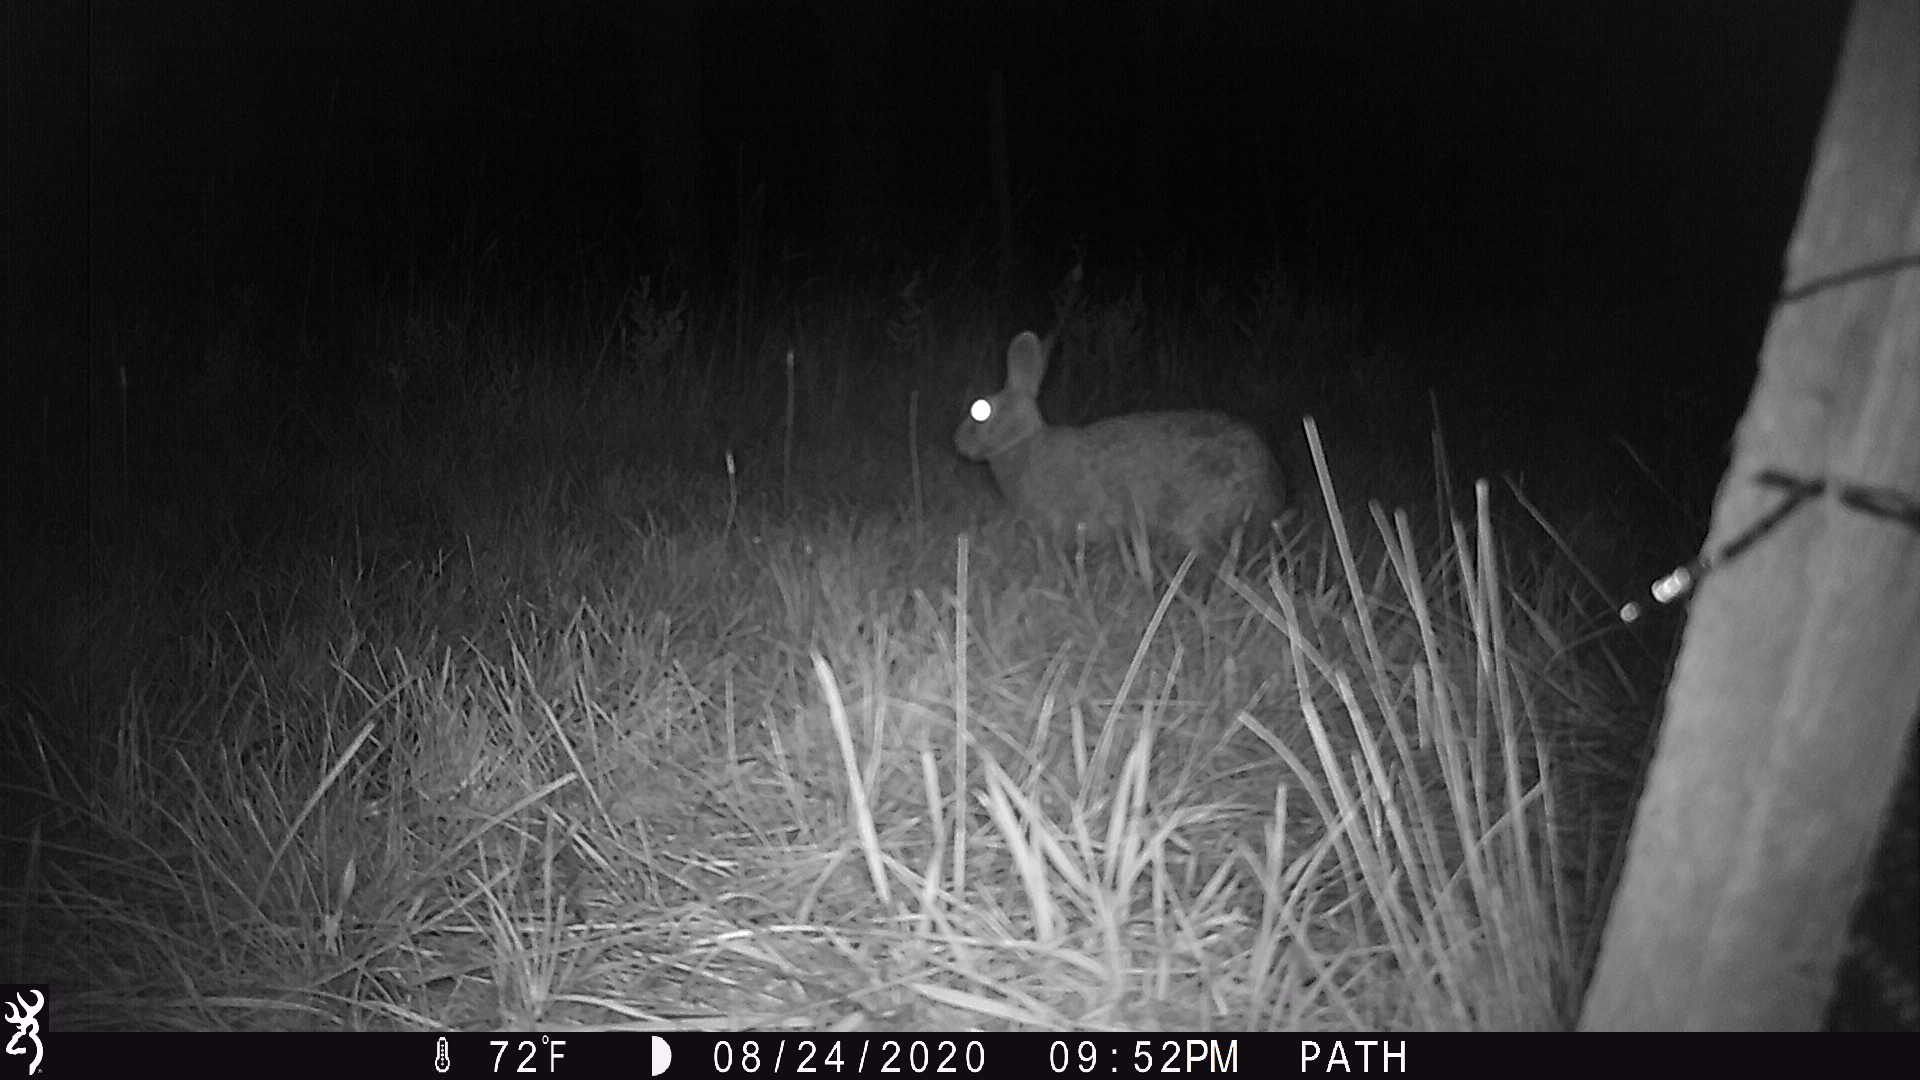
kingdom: Animalia
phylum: Chordata
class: Mammalia
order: Lagomorpha
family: Leporidae
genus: Sylvilagus
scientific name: Sylvilagus floridanus
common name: Eastern cottontail
